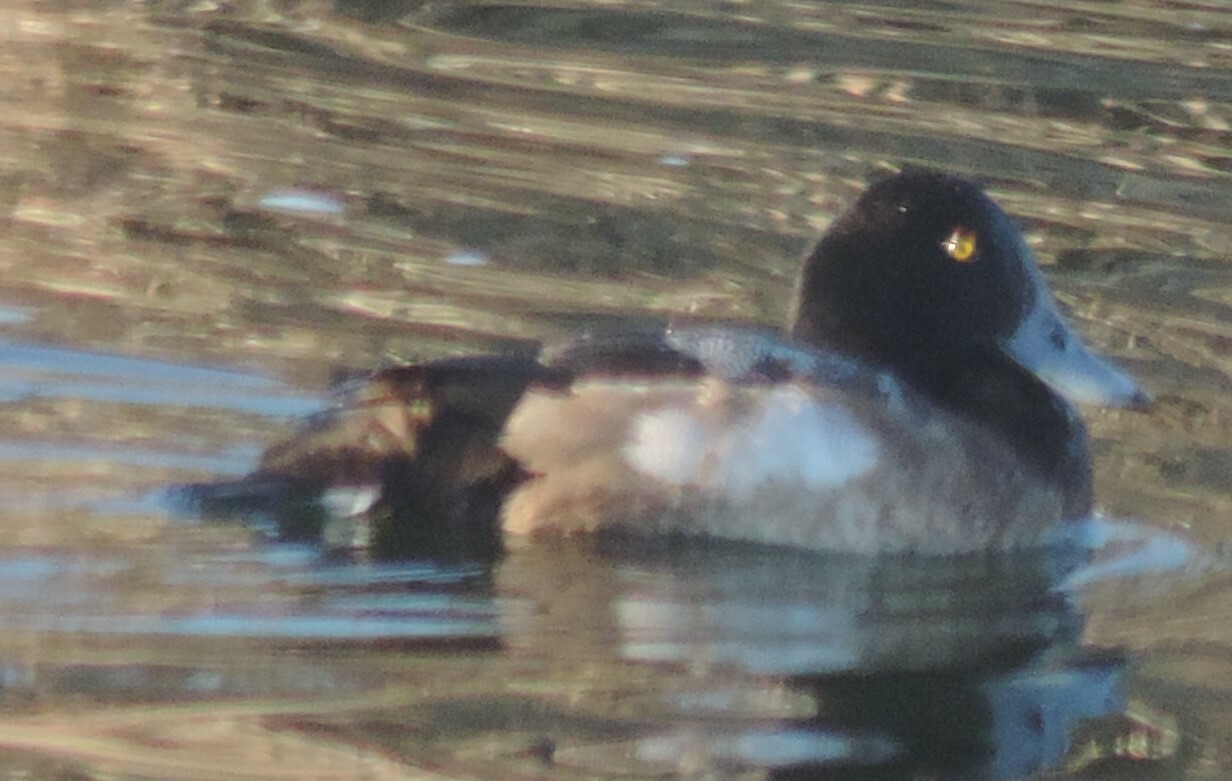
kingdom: Animalia
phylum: Chordata
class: Aves
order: Anseriformes
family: Anatidae
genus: Aythya
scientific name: Aythya marila
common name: Greater scaup
